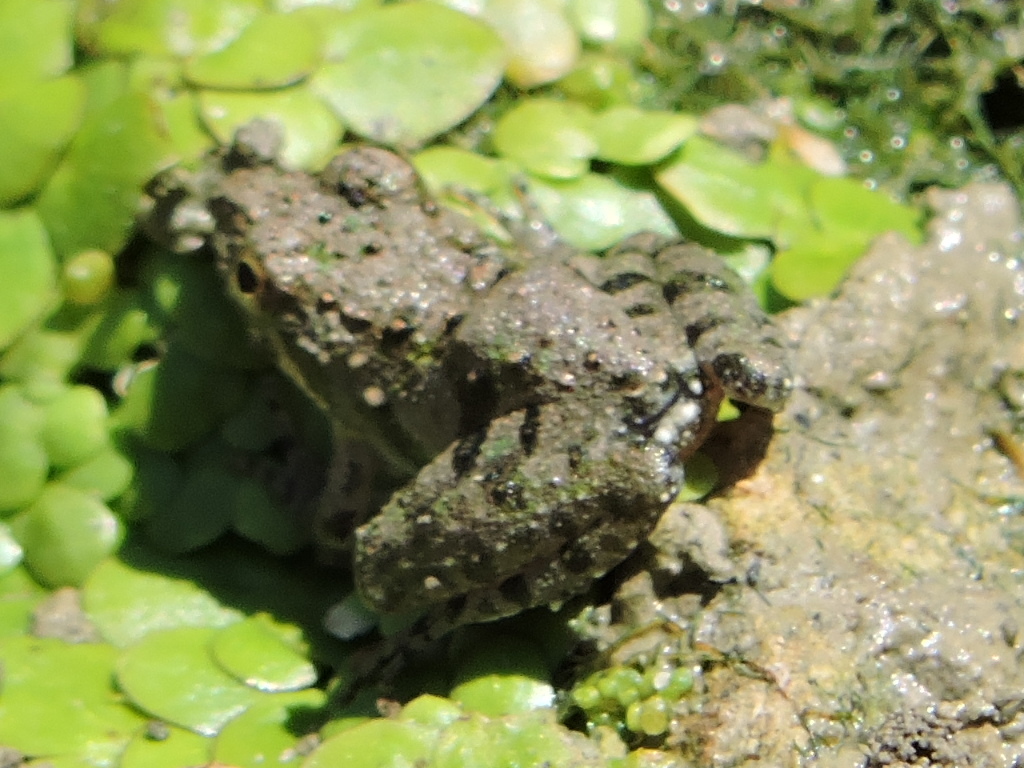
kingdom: Animalia
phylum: Chordata
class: Amphibia
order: Anura
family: Hylidae
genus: Acris
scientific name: Acris blanchardi
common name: Blanchard's cricket frog
